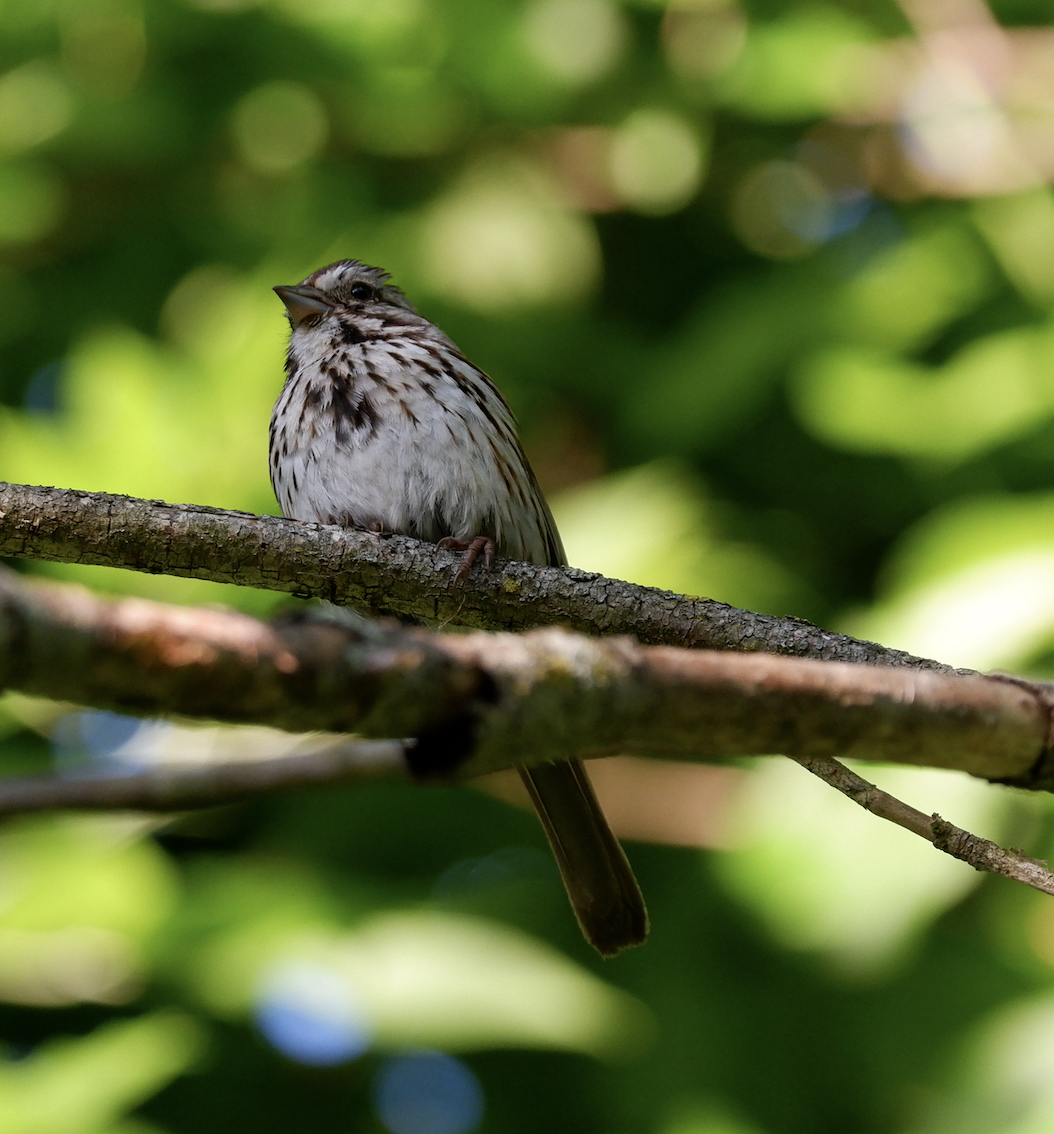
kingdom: Animalia
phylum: Chordata
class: Aves
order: Passeriformes
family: Passerellidae
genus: Melospiza
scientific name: Melospiza melodia
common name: Song sparrow
